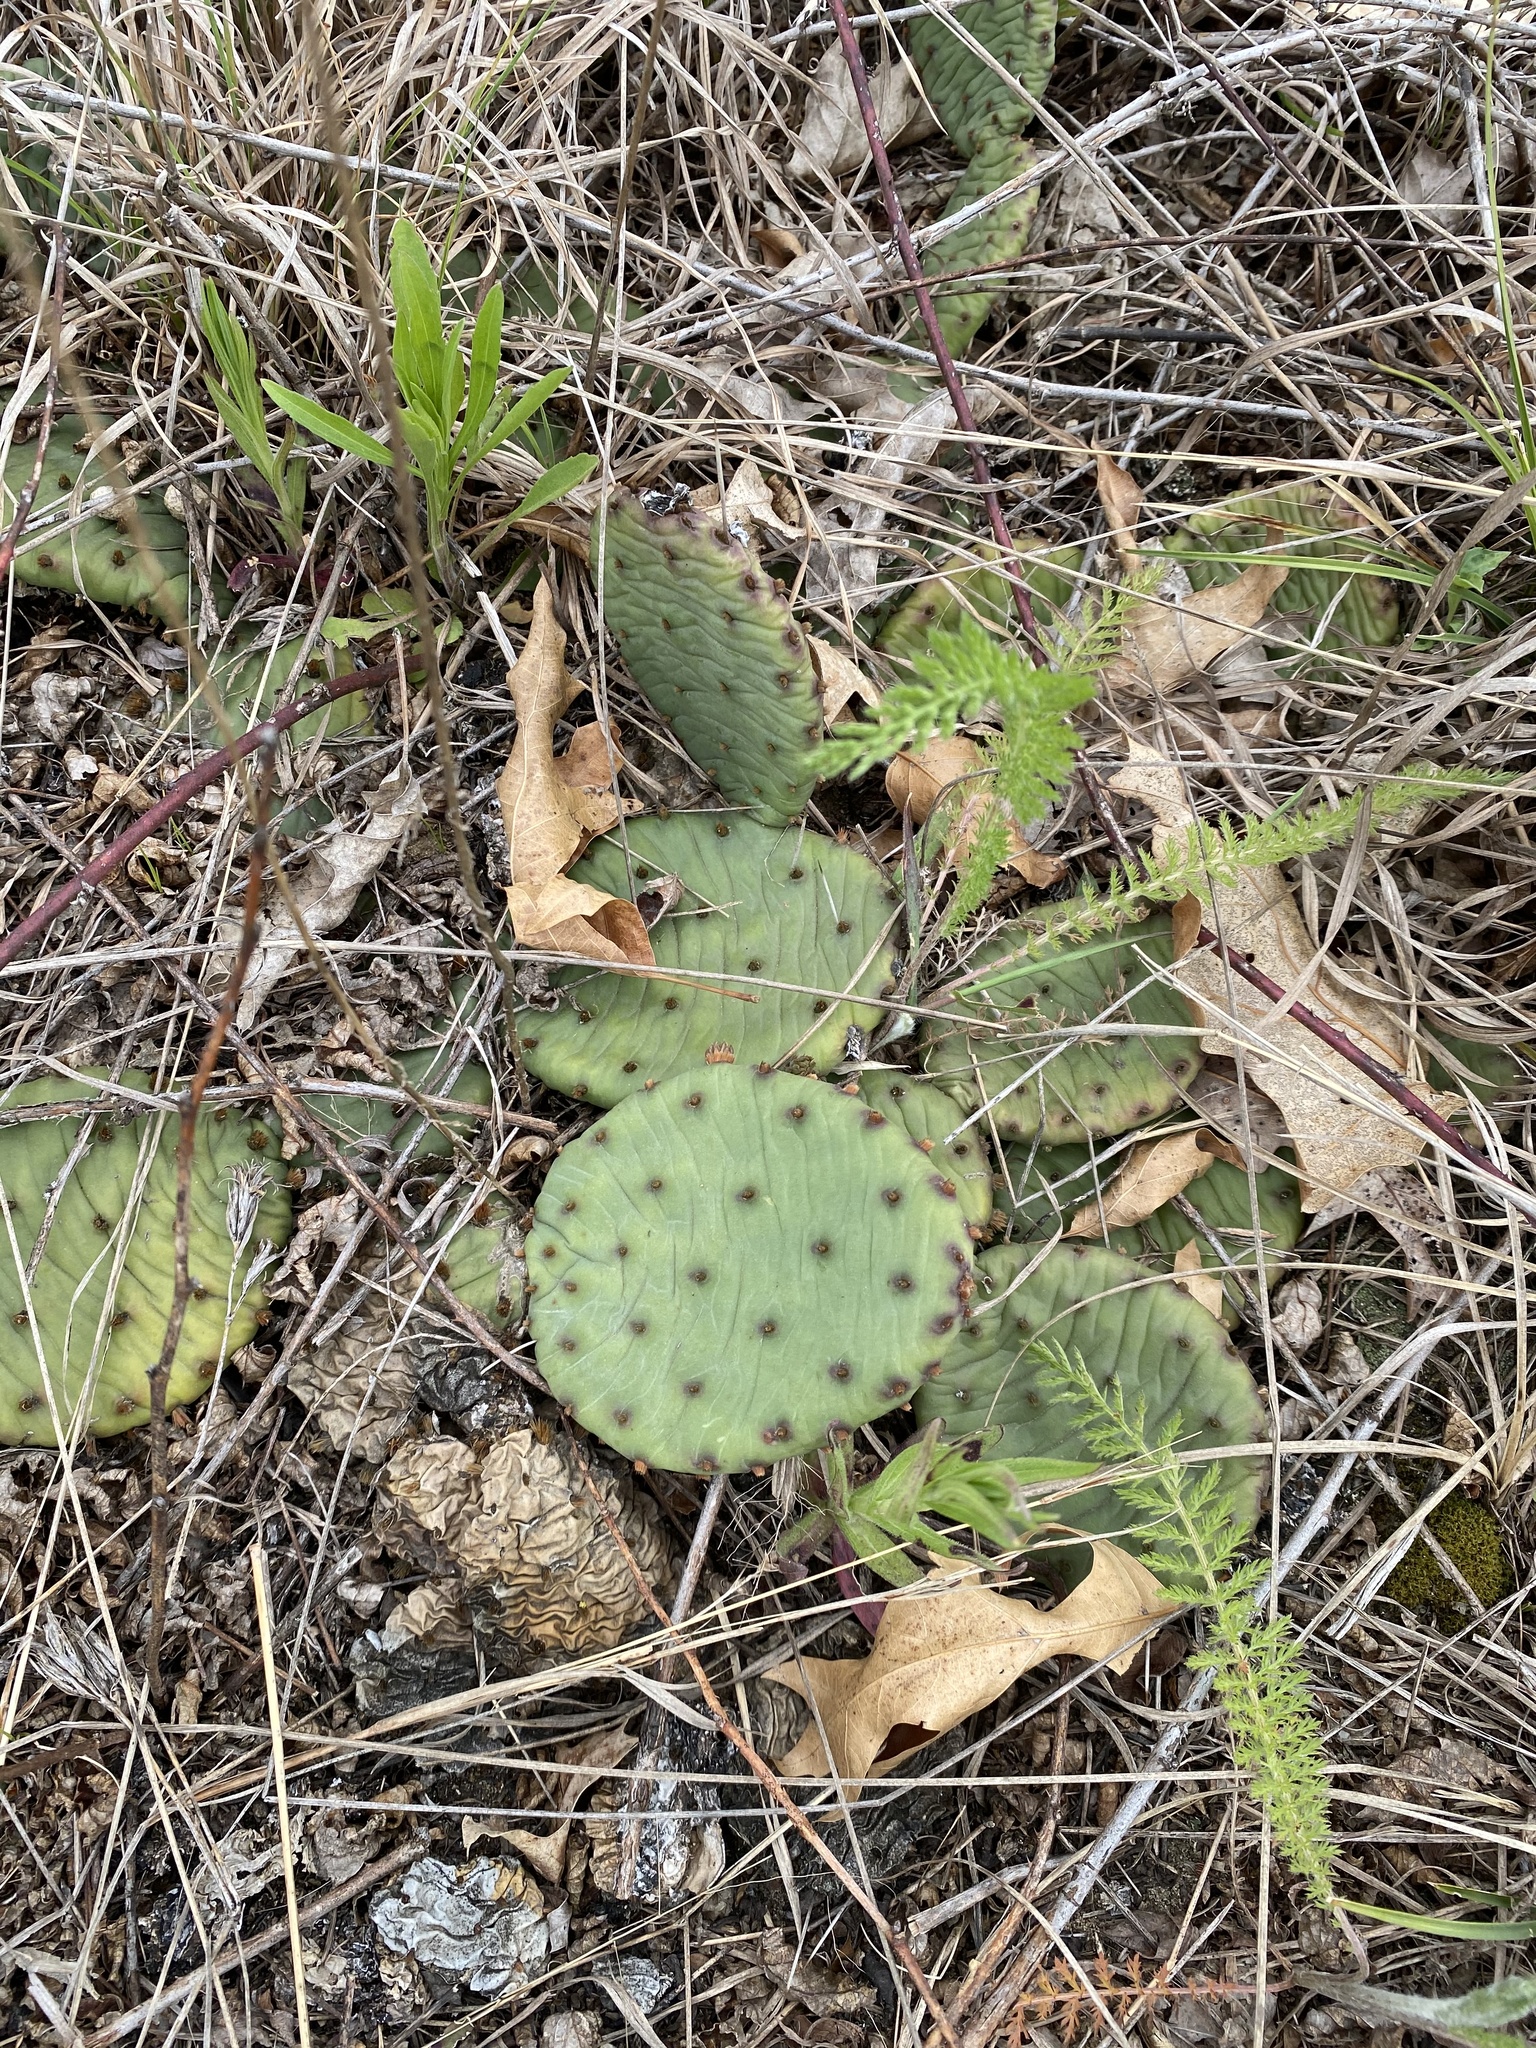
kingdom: Plantae
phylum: Tracheophyta
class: Magnoliopsida
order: Caryophyllales
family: Cactaceae
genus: Opuntia
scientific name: Opuntia humifusa
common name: Eastern prickly-pear
